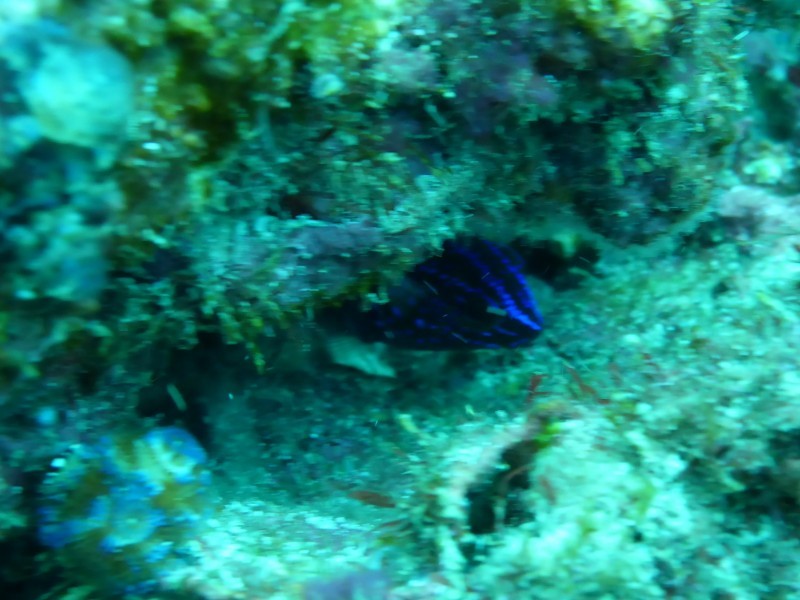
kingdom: Animalia
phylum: Chordata
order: Perciformes
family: Pomacentridae
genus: Microspathodon
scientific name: Microspathodon dorsalis
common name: Giant damselfish
